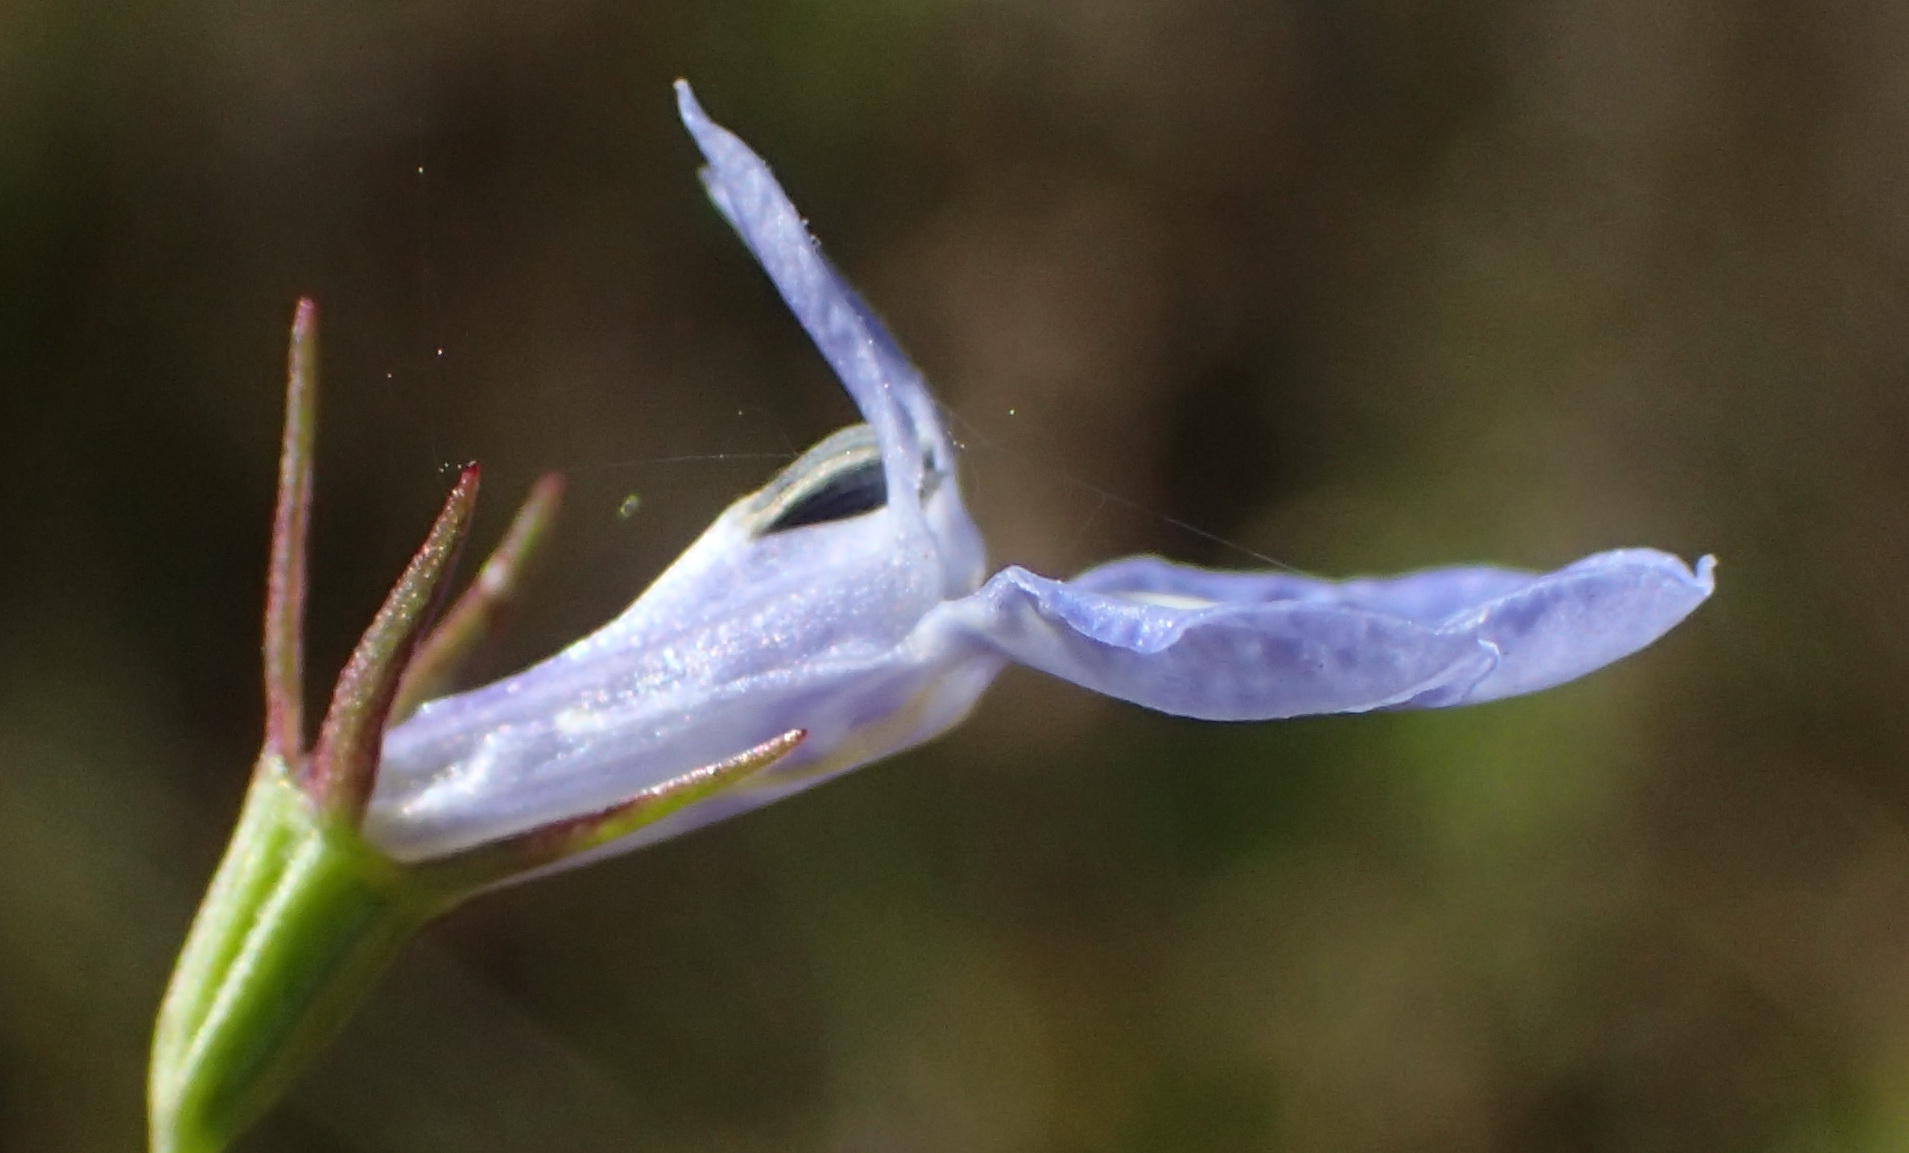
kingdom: Plantae
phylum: Tracheophyta
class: Magnoliopsida
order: Asterales
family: Campanulaceae
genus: Lobelia
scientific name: Lobelia flaccida
